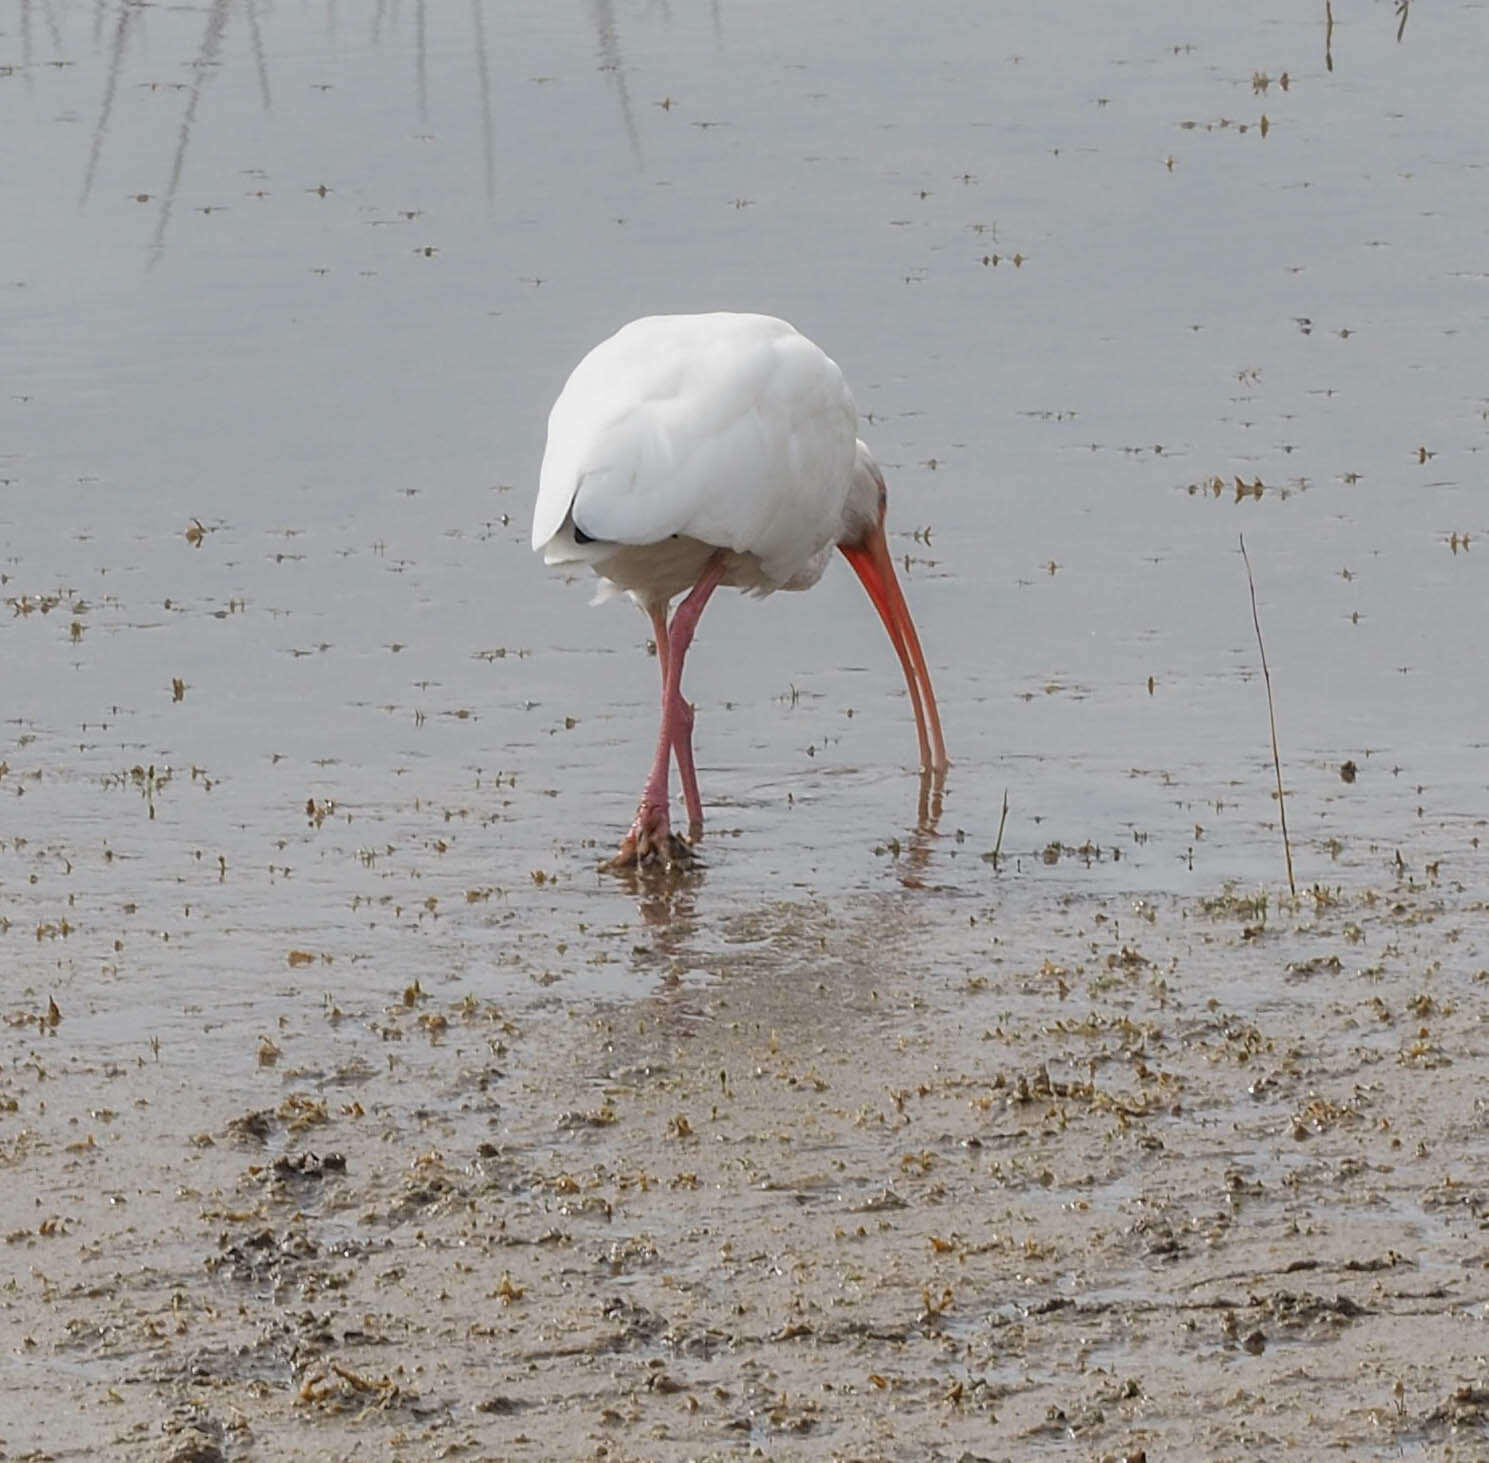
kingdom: Animalia
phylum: Chordata
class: Aves
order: Pelecaniformes
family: Threskiornithidae
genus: Eudocimus
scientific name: Eudocimus albus
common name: White ibis
